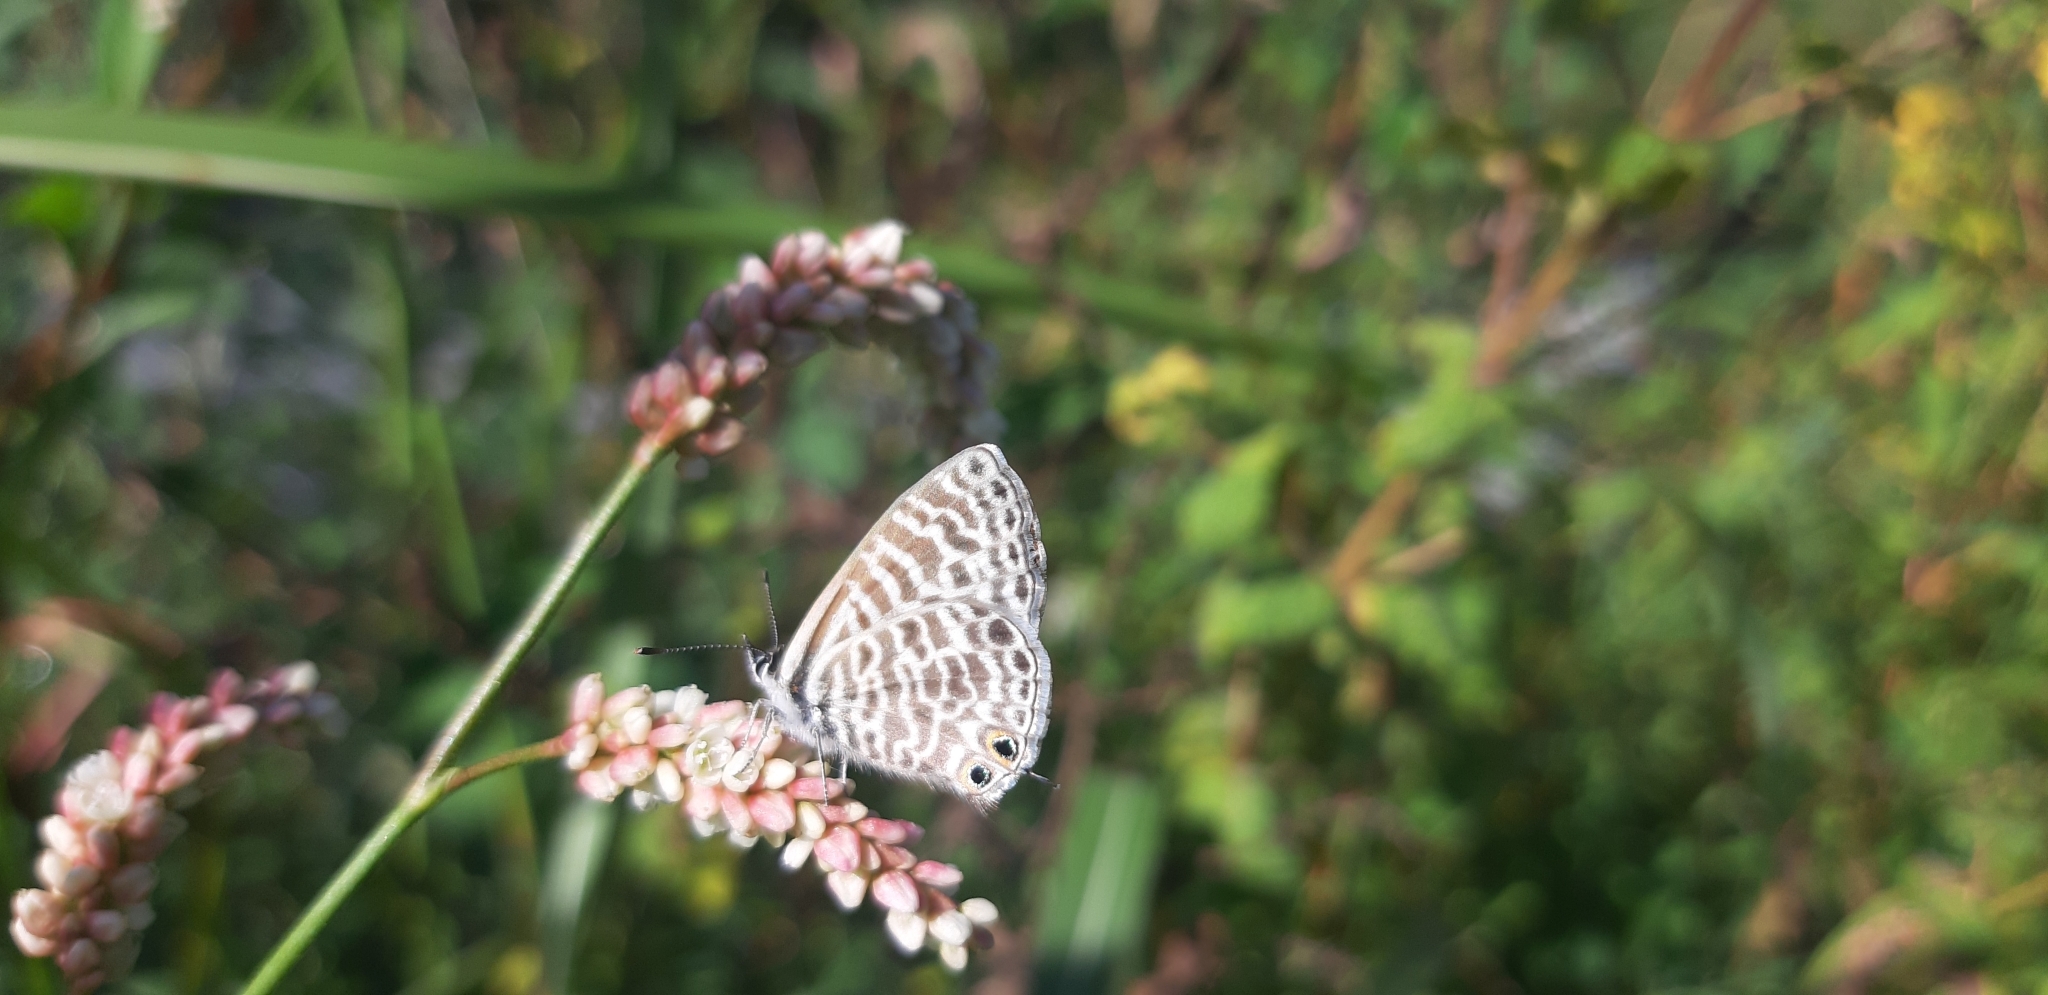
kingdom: Animalia
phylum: Arthropoda
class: Insecta
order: Lepidoptera
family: Lycaenidae
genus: Leptotes
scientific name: Leptotes pirithous
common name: Lang's short-tailed blue
